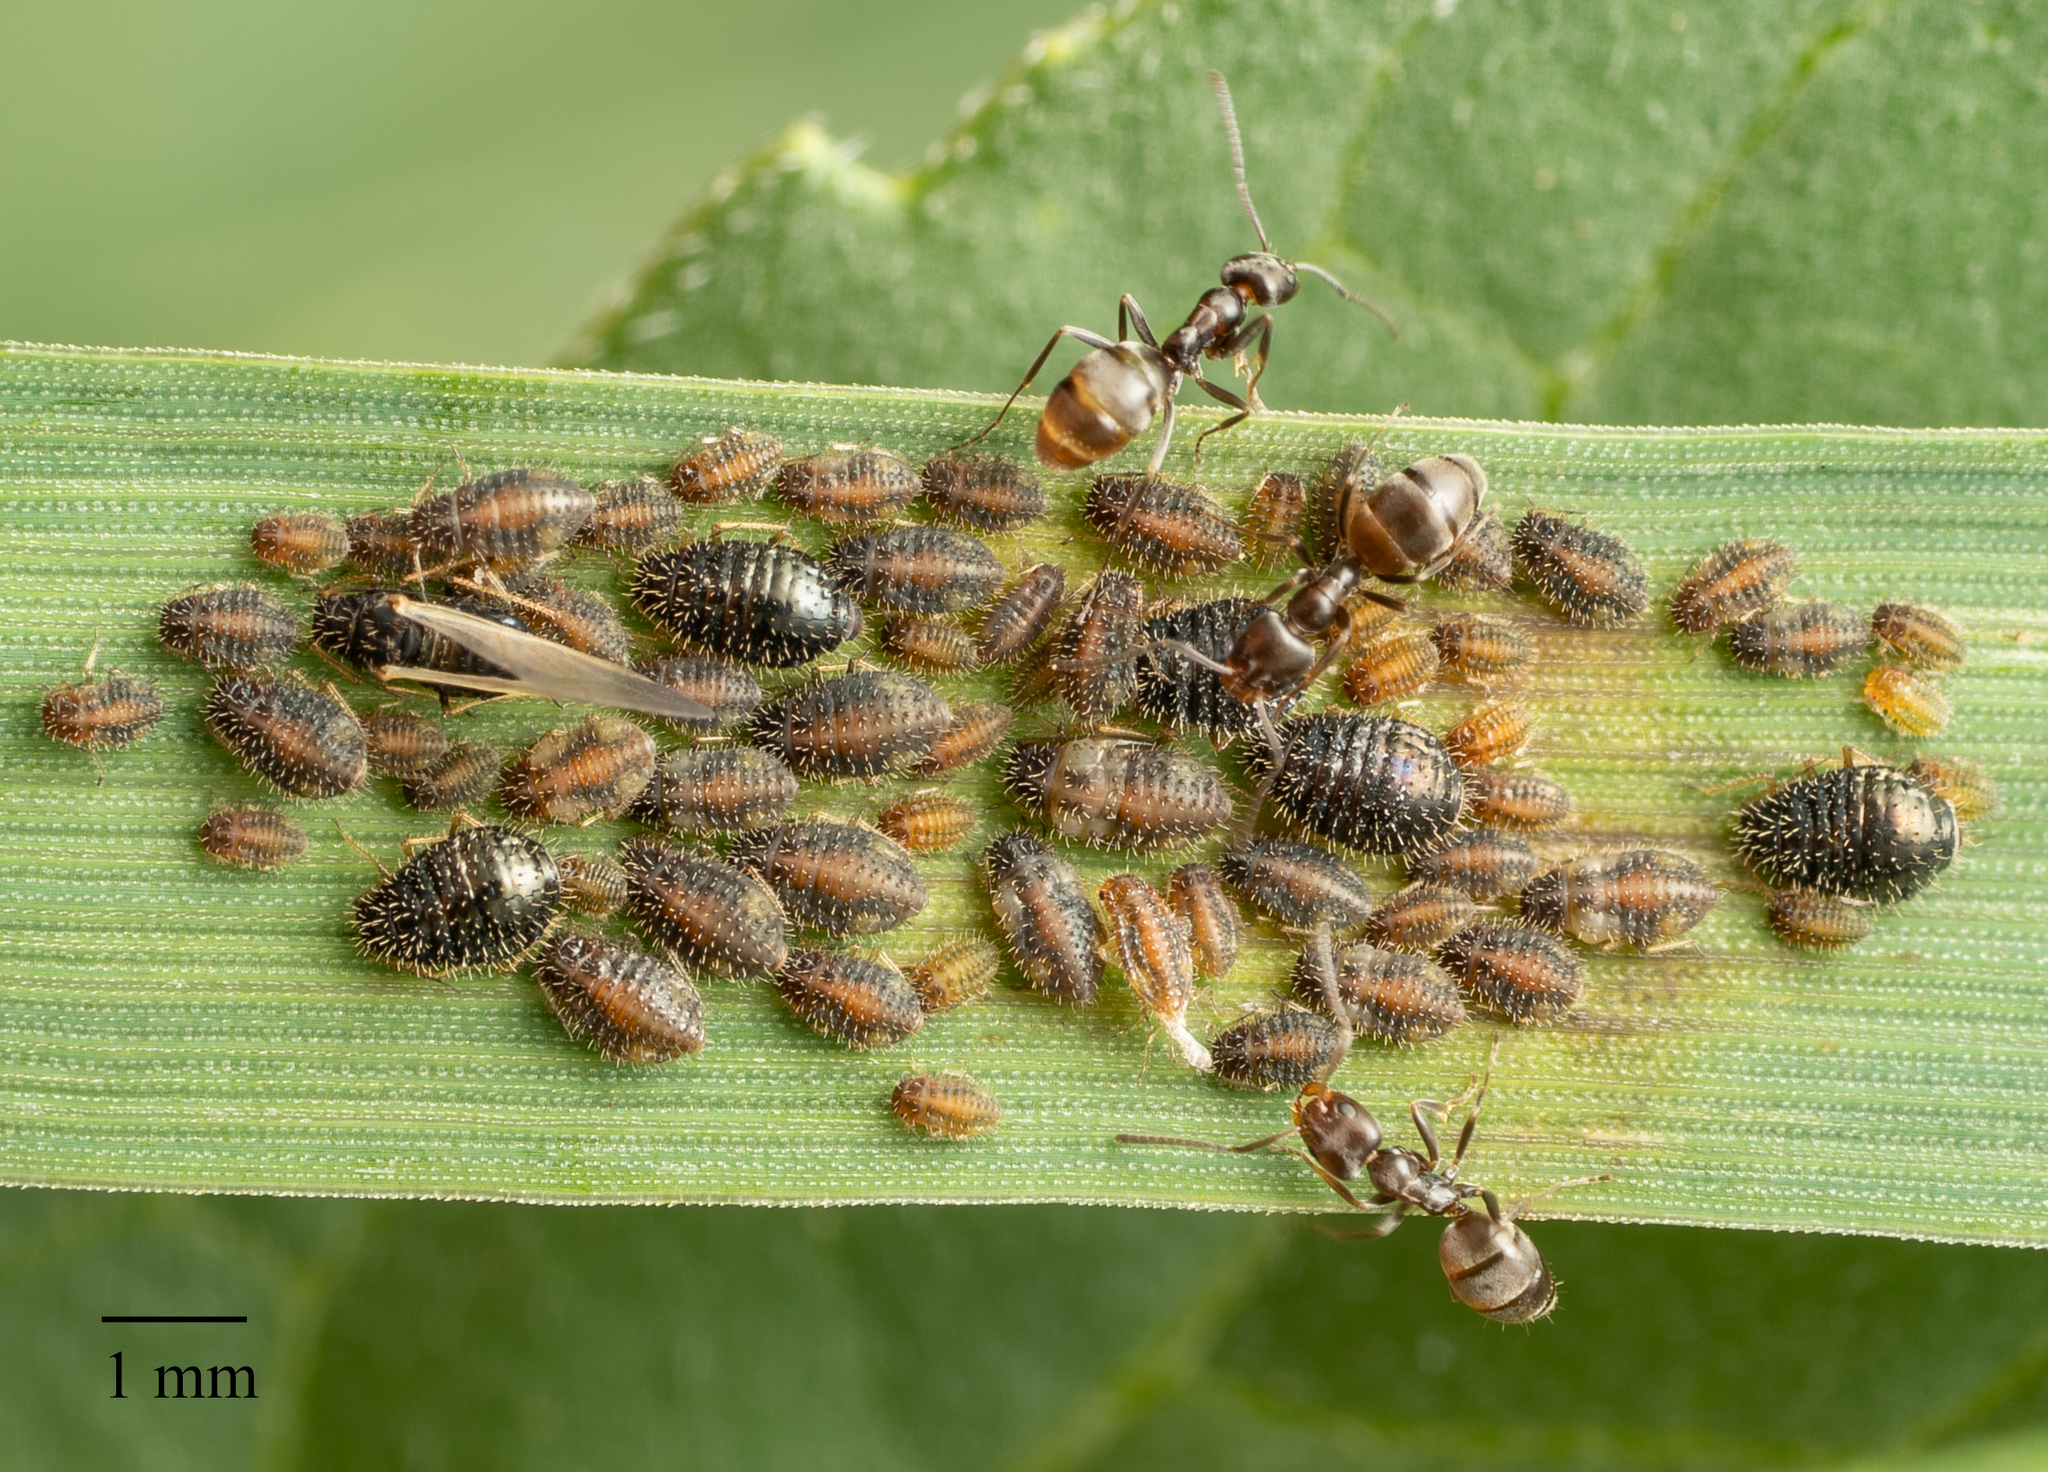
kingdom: Animalia
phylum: Arthropoda
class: Insecta
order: Hemiptera
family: Aphididae
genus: Sipha
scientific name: Sipha maydis
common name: Aphid
